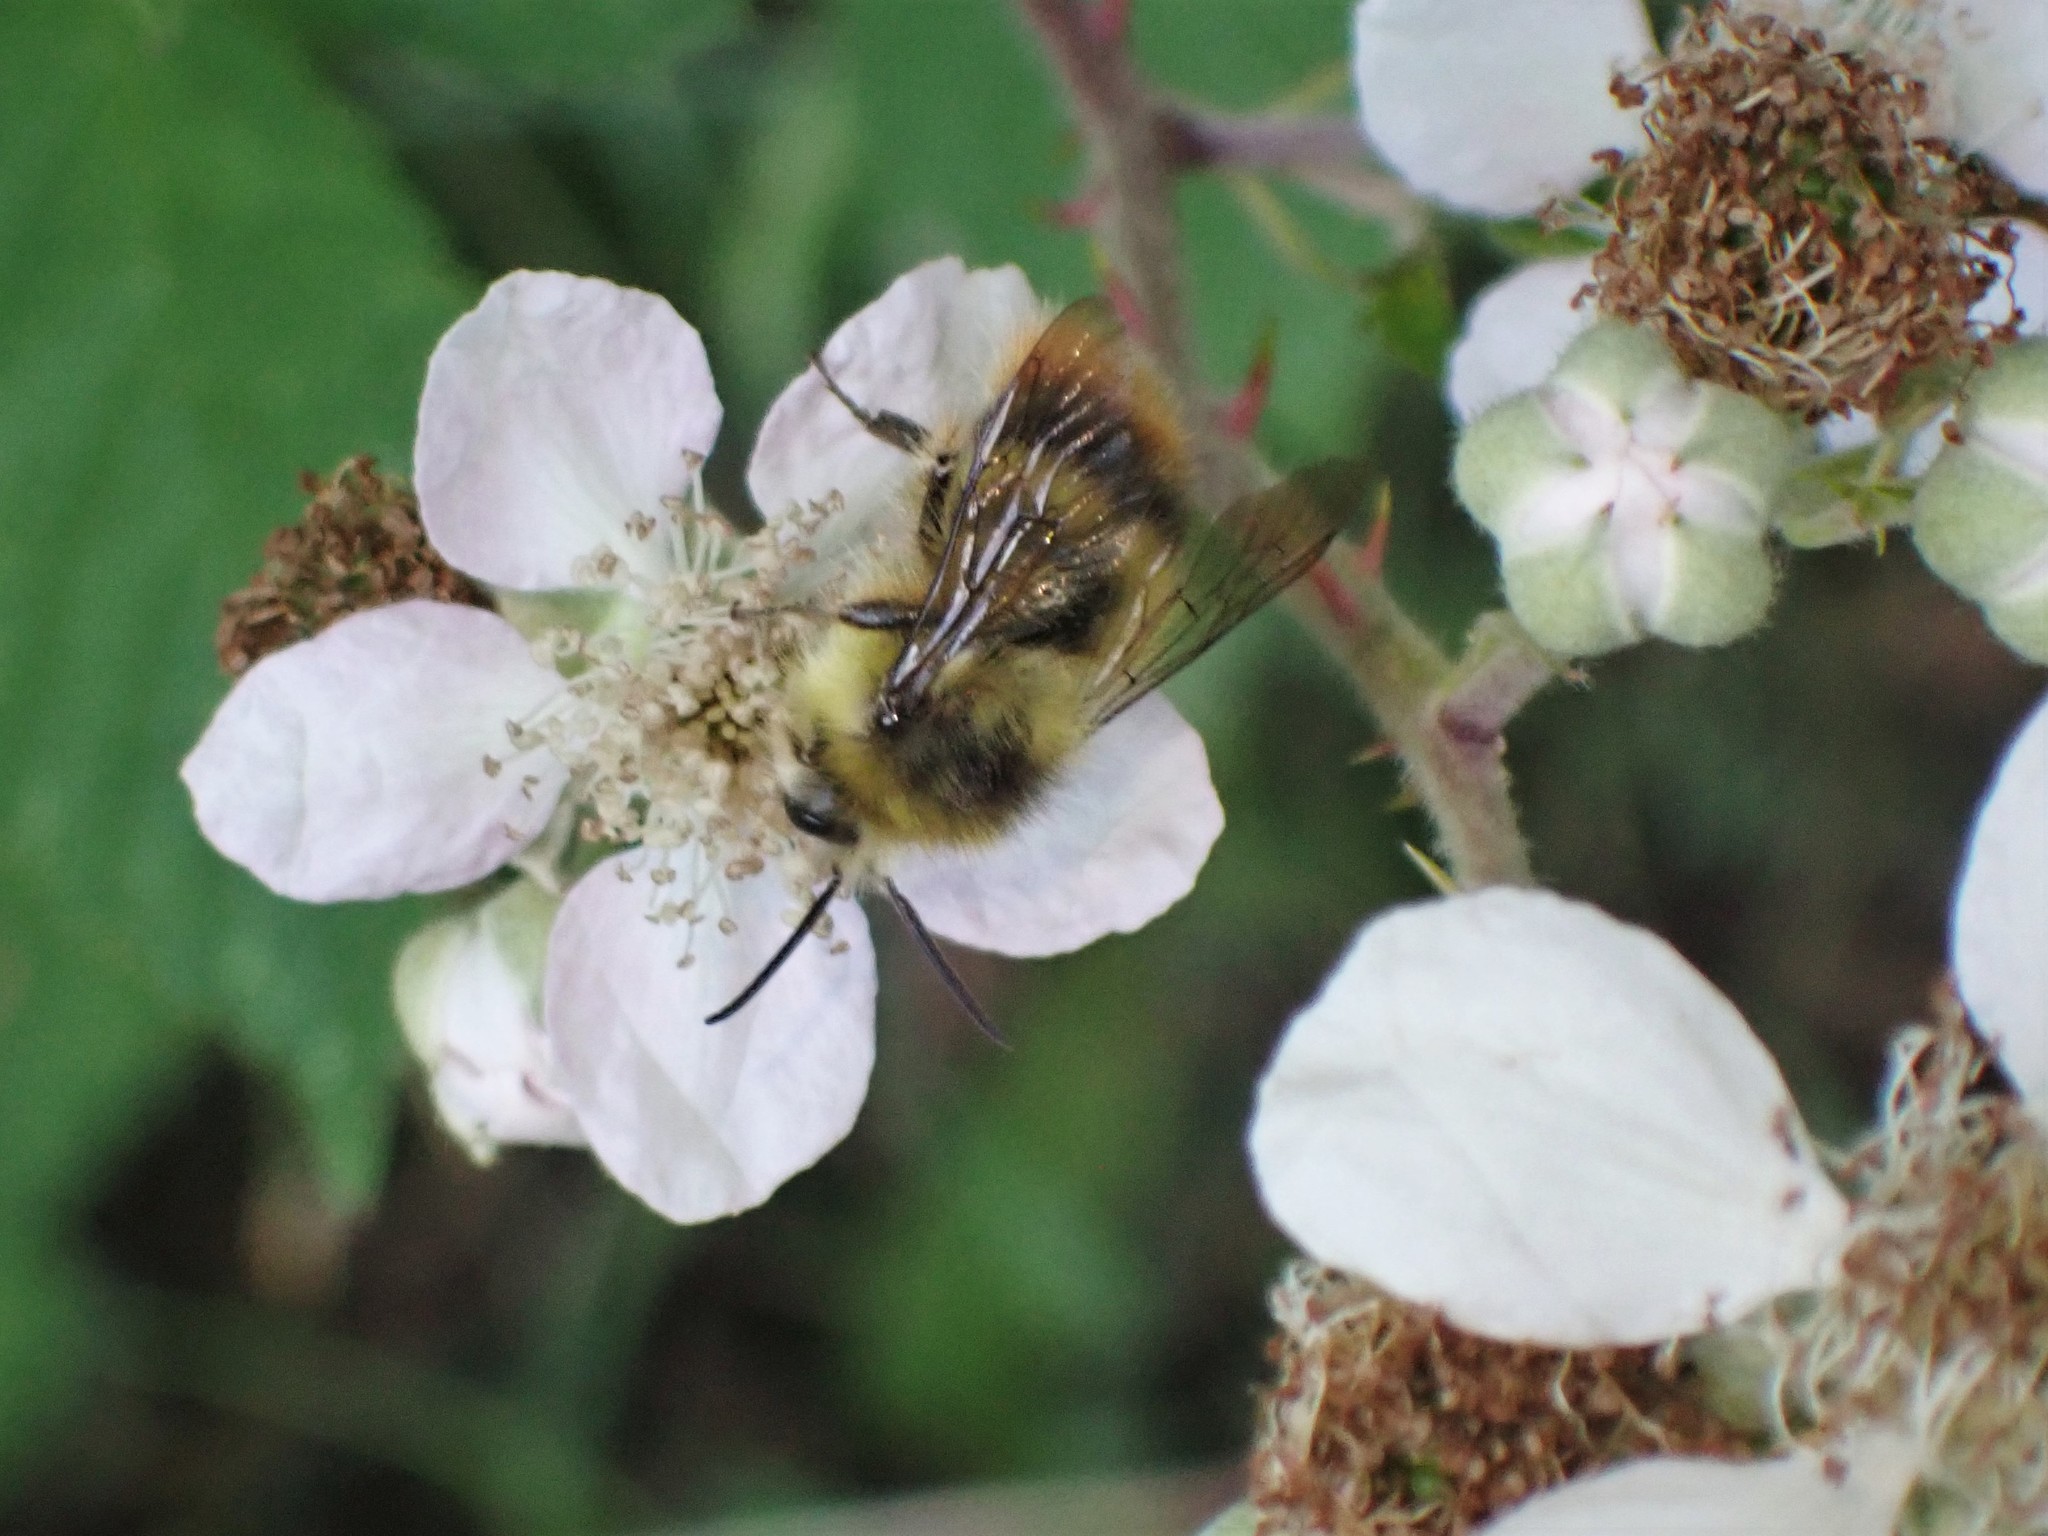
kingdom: Animalia
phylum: Arthropoda
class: Insecta
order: Hymenoptera
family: Apidae
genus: Bombus
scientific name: Bombus mixtus
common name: Fuzzy-horned bumble bee
